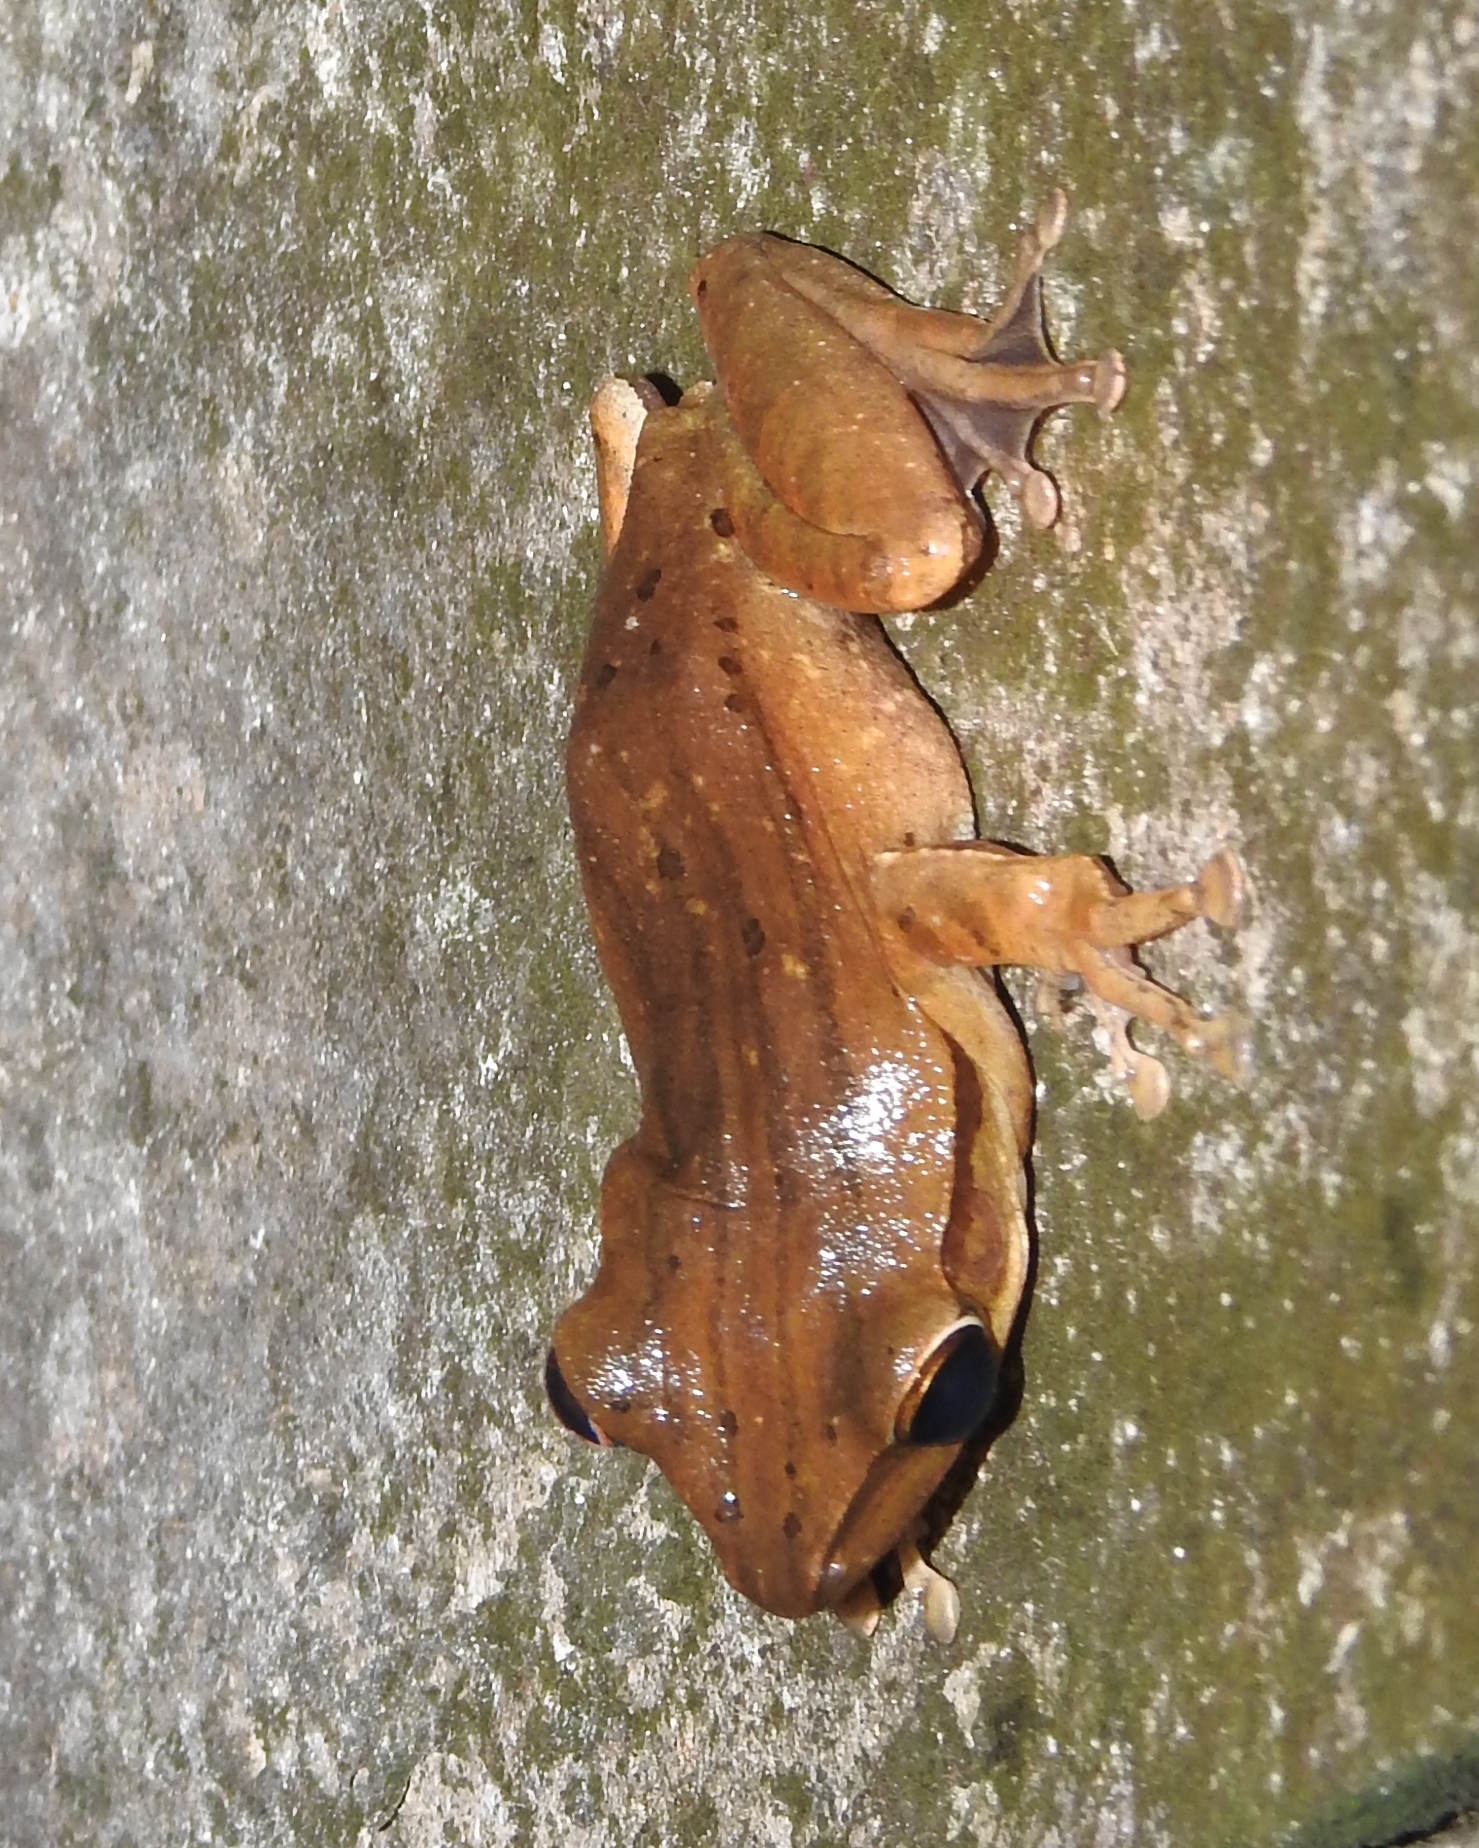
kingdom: Animalia
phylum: Chordata
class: Amphibia
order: Anura
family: Rhacophoridae
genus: Polypedates
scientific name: Polypedates leucomystax
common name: Common tree frog/four-lined tree frog
